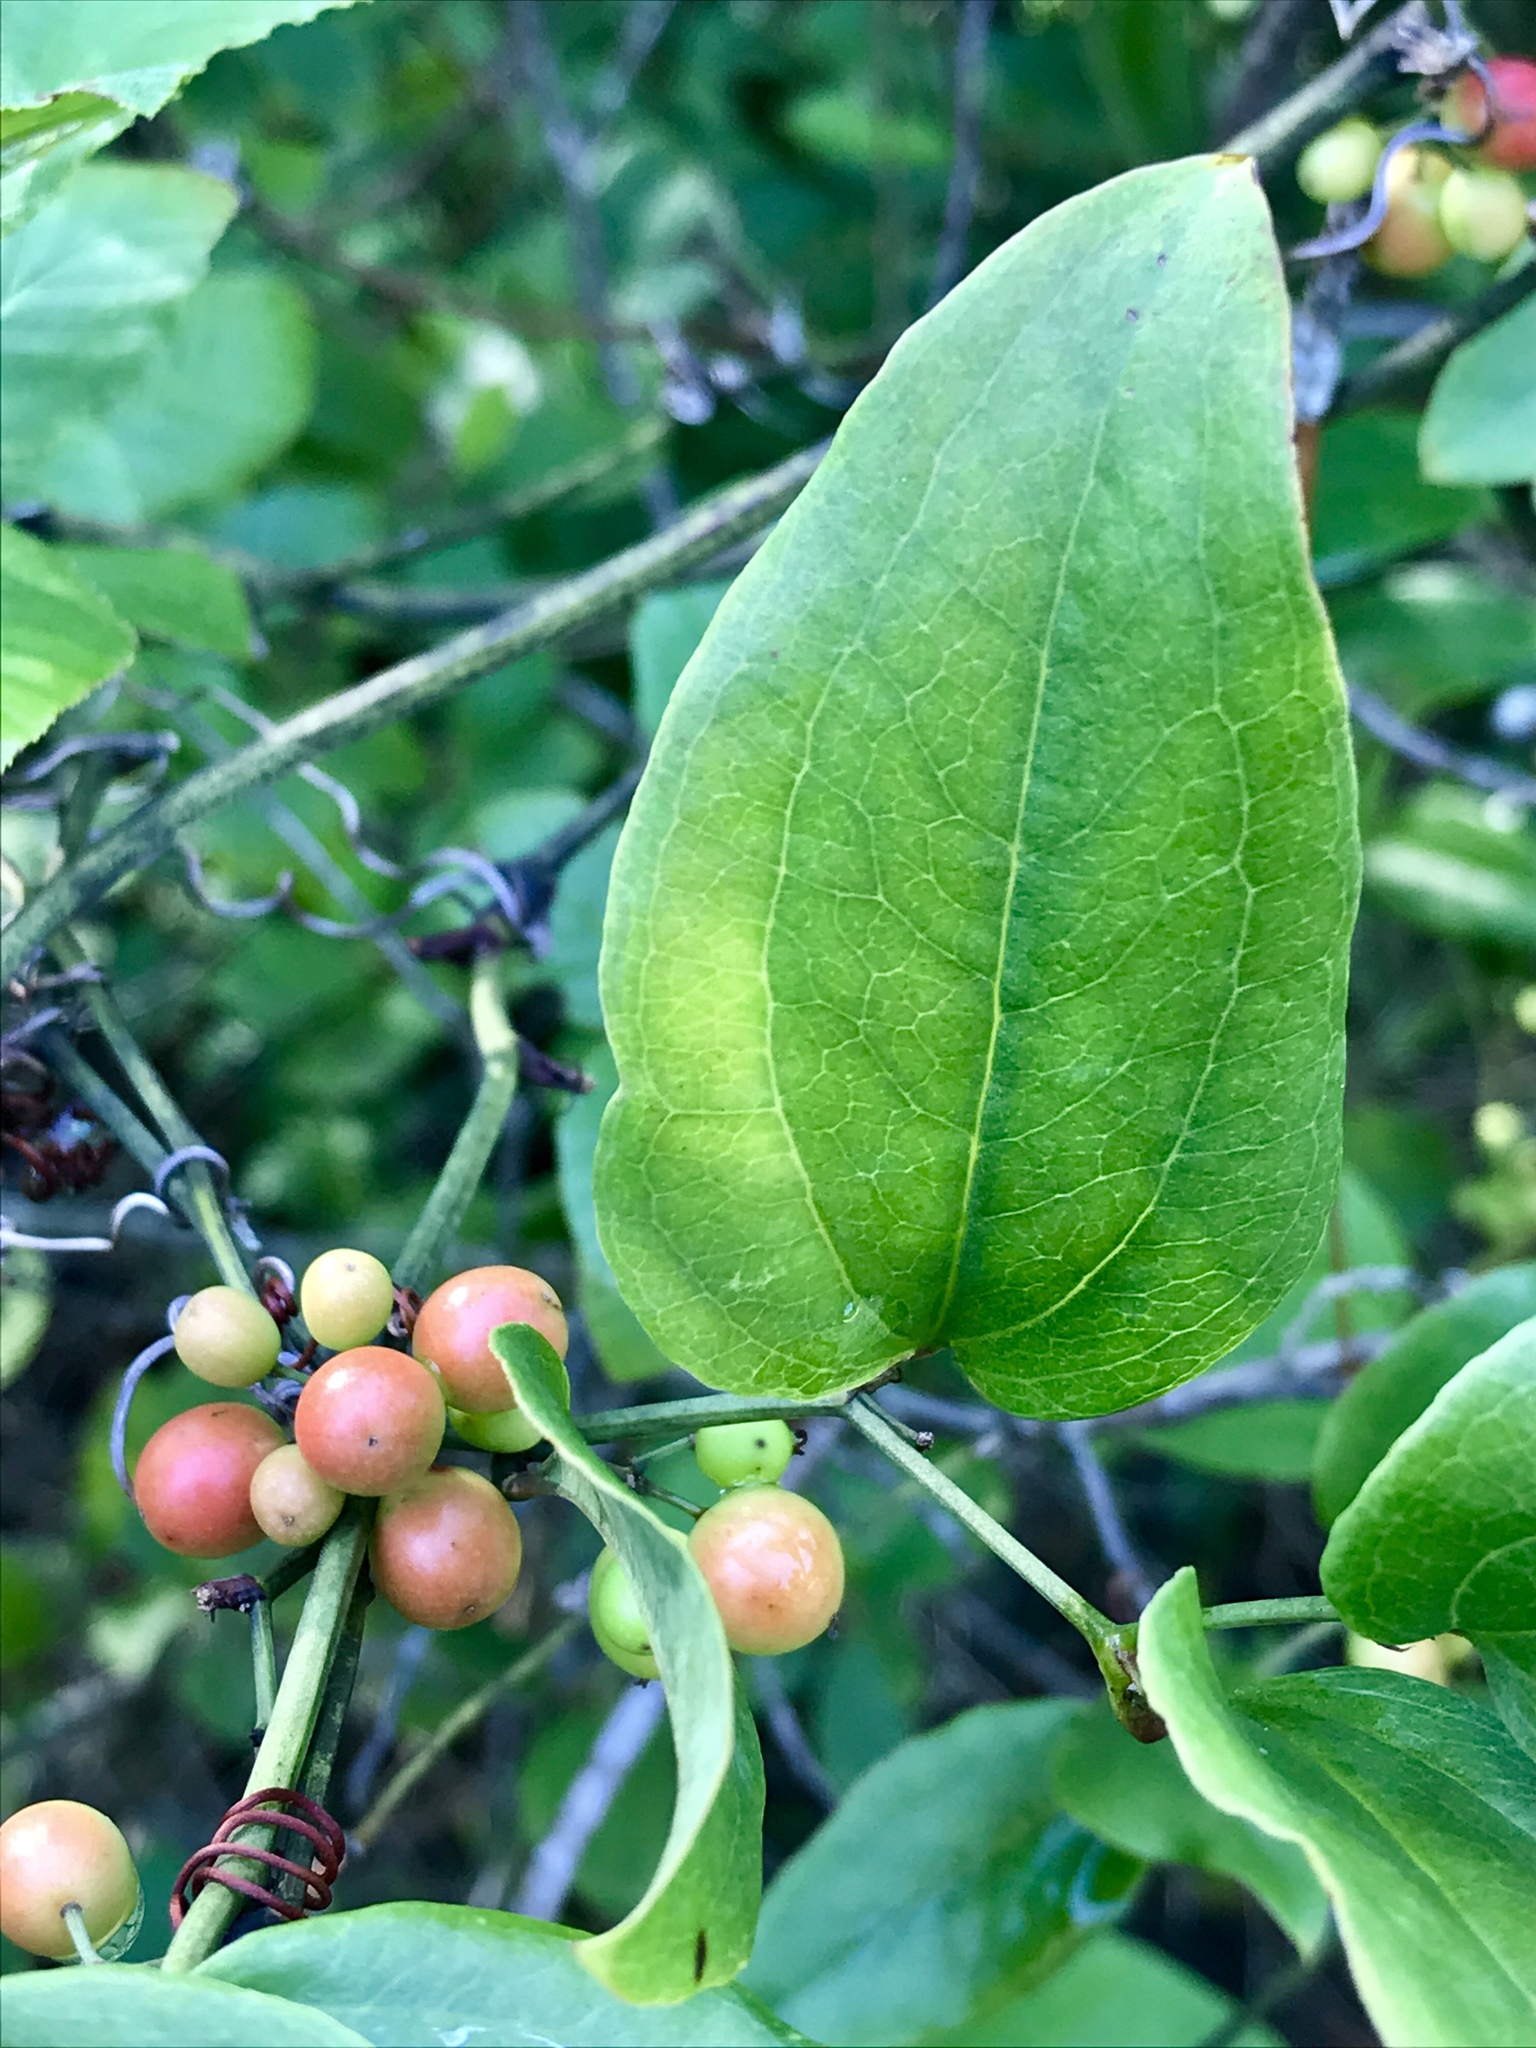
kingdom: Plantae
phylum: Tracheophyta
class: Liliopsida
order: Liliales
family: Smilacaceae
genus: Smilax
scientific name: Smilax maritima
